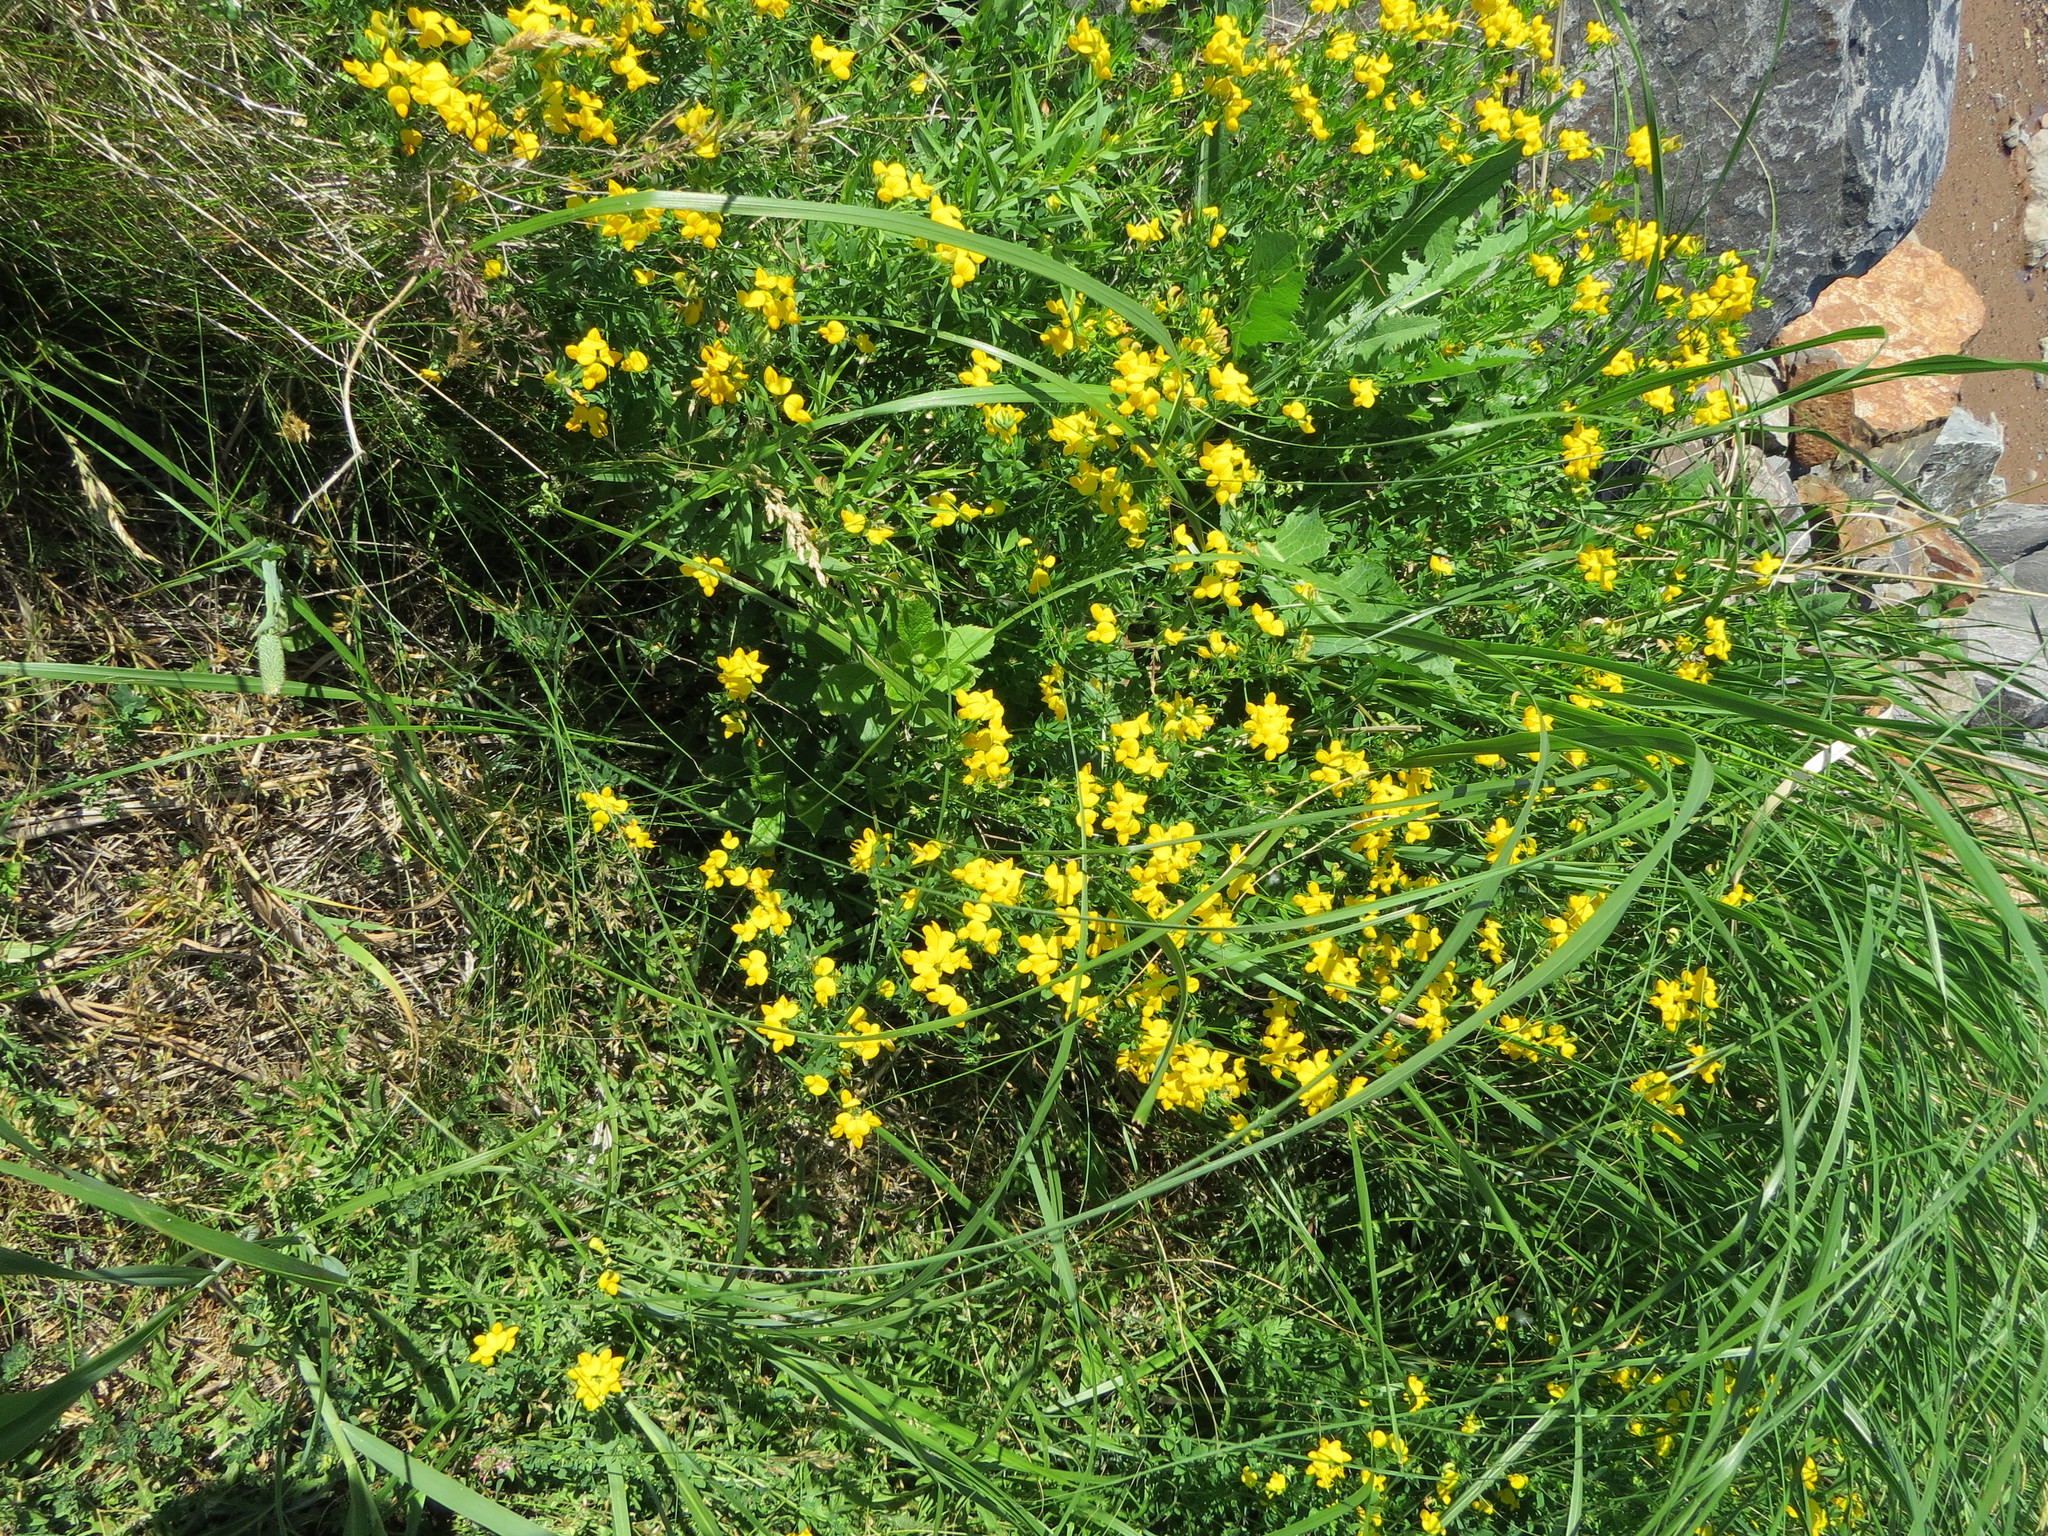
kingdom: Plantae
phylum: Tracheophyta
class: Magnoliopsida
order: Fabales
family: Fabaceae
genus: Lotus
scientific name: Lotus corniculatus
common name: Common bird's-foot-trefoil
